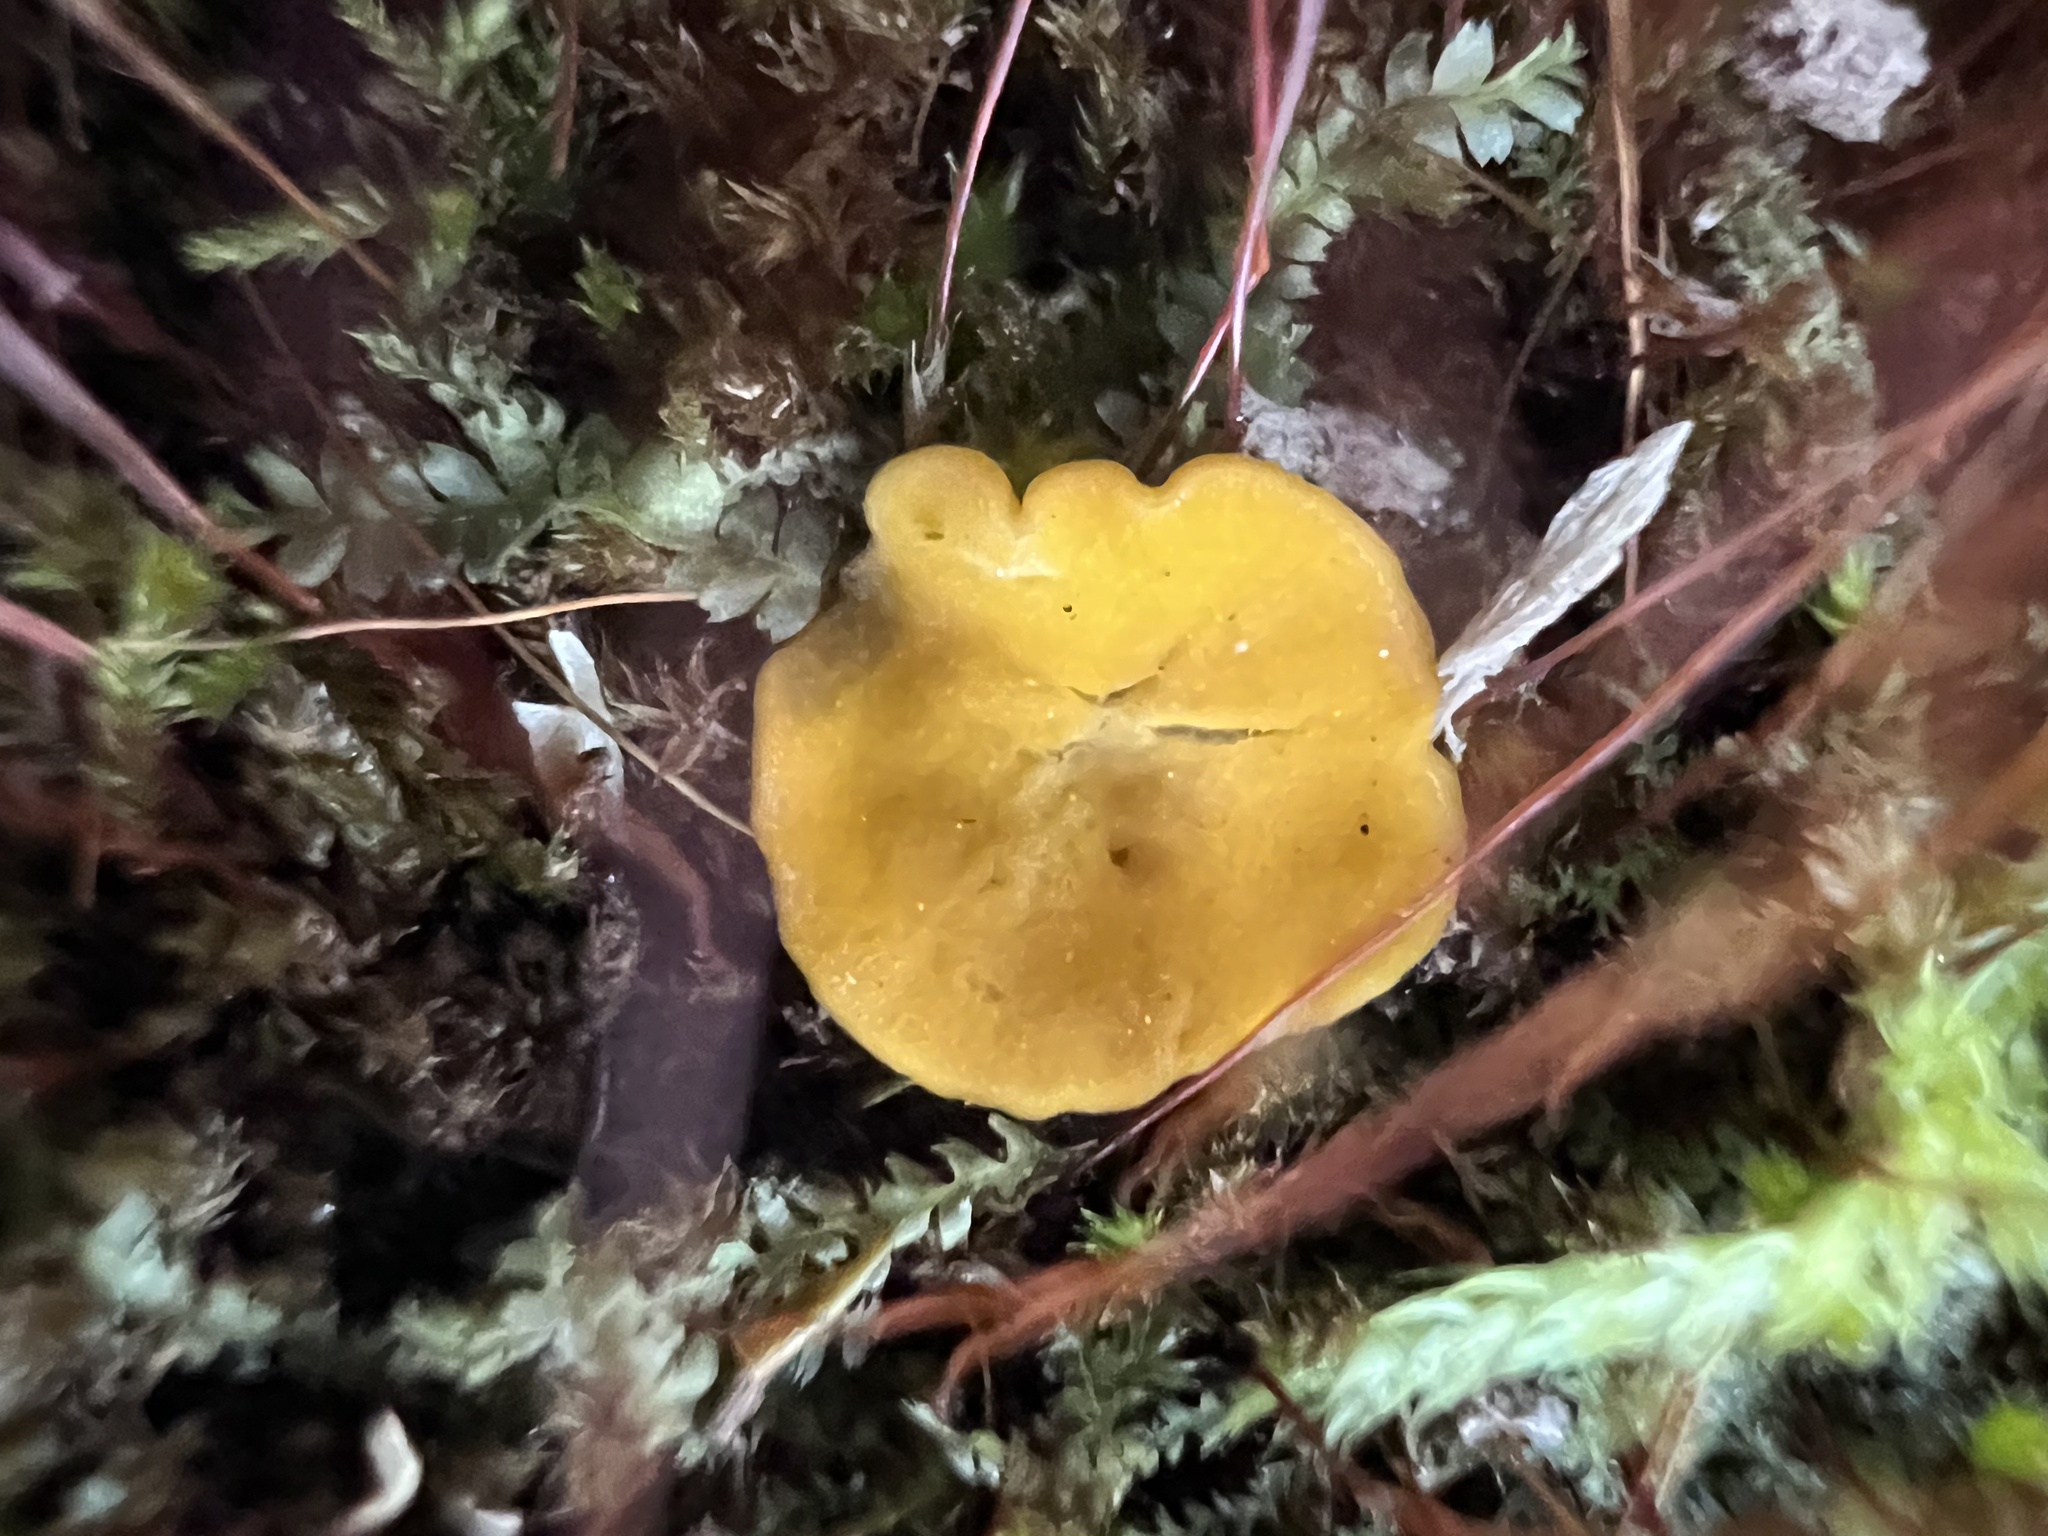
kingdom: Fungi
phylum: Ascomycota
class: Leotiomycetes
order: Helotiales
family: Pezizellaceae
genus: Calycina
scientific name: Calycina citrina
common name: Yellow fairy cups
